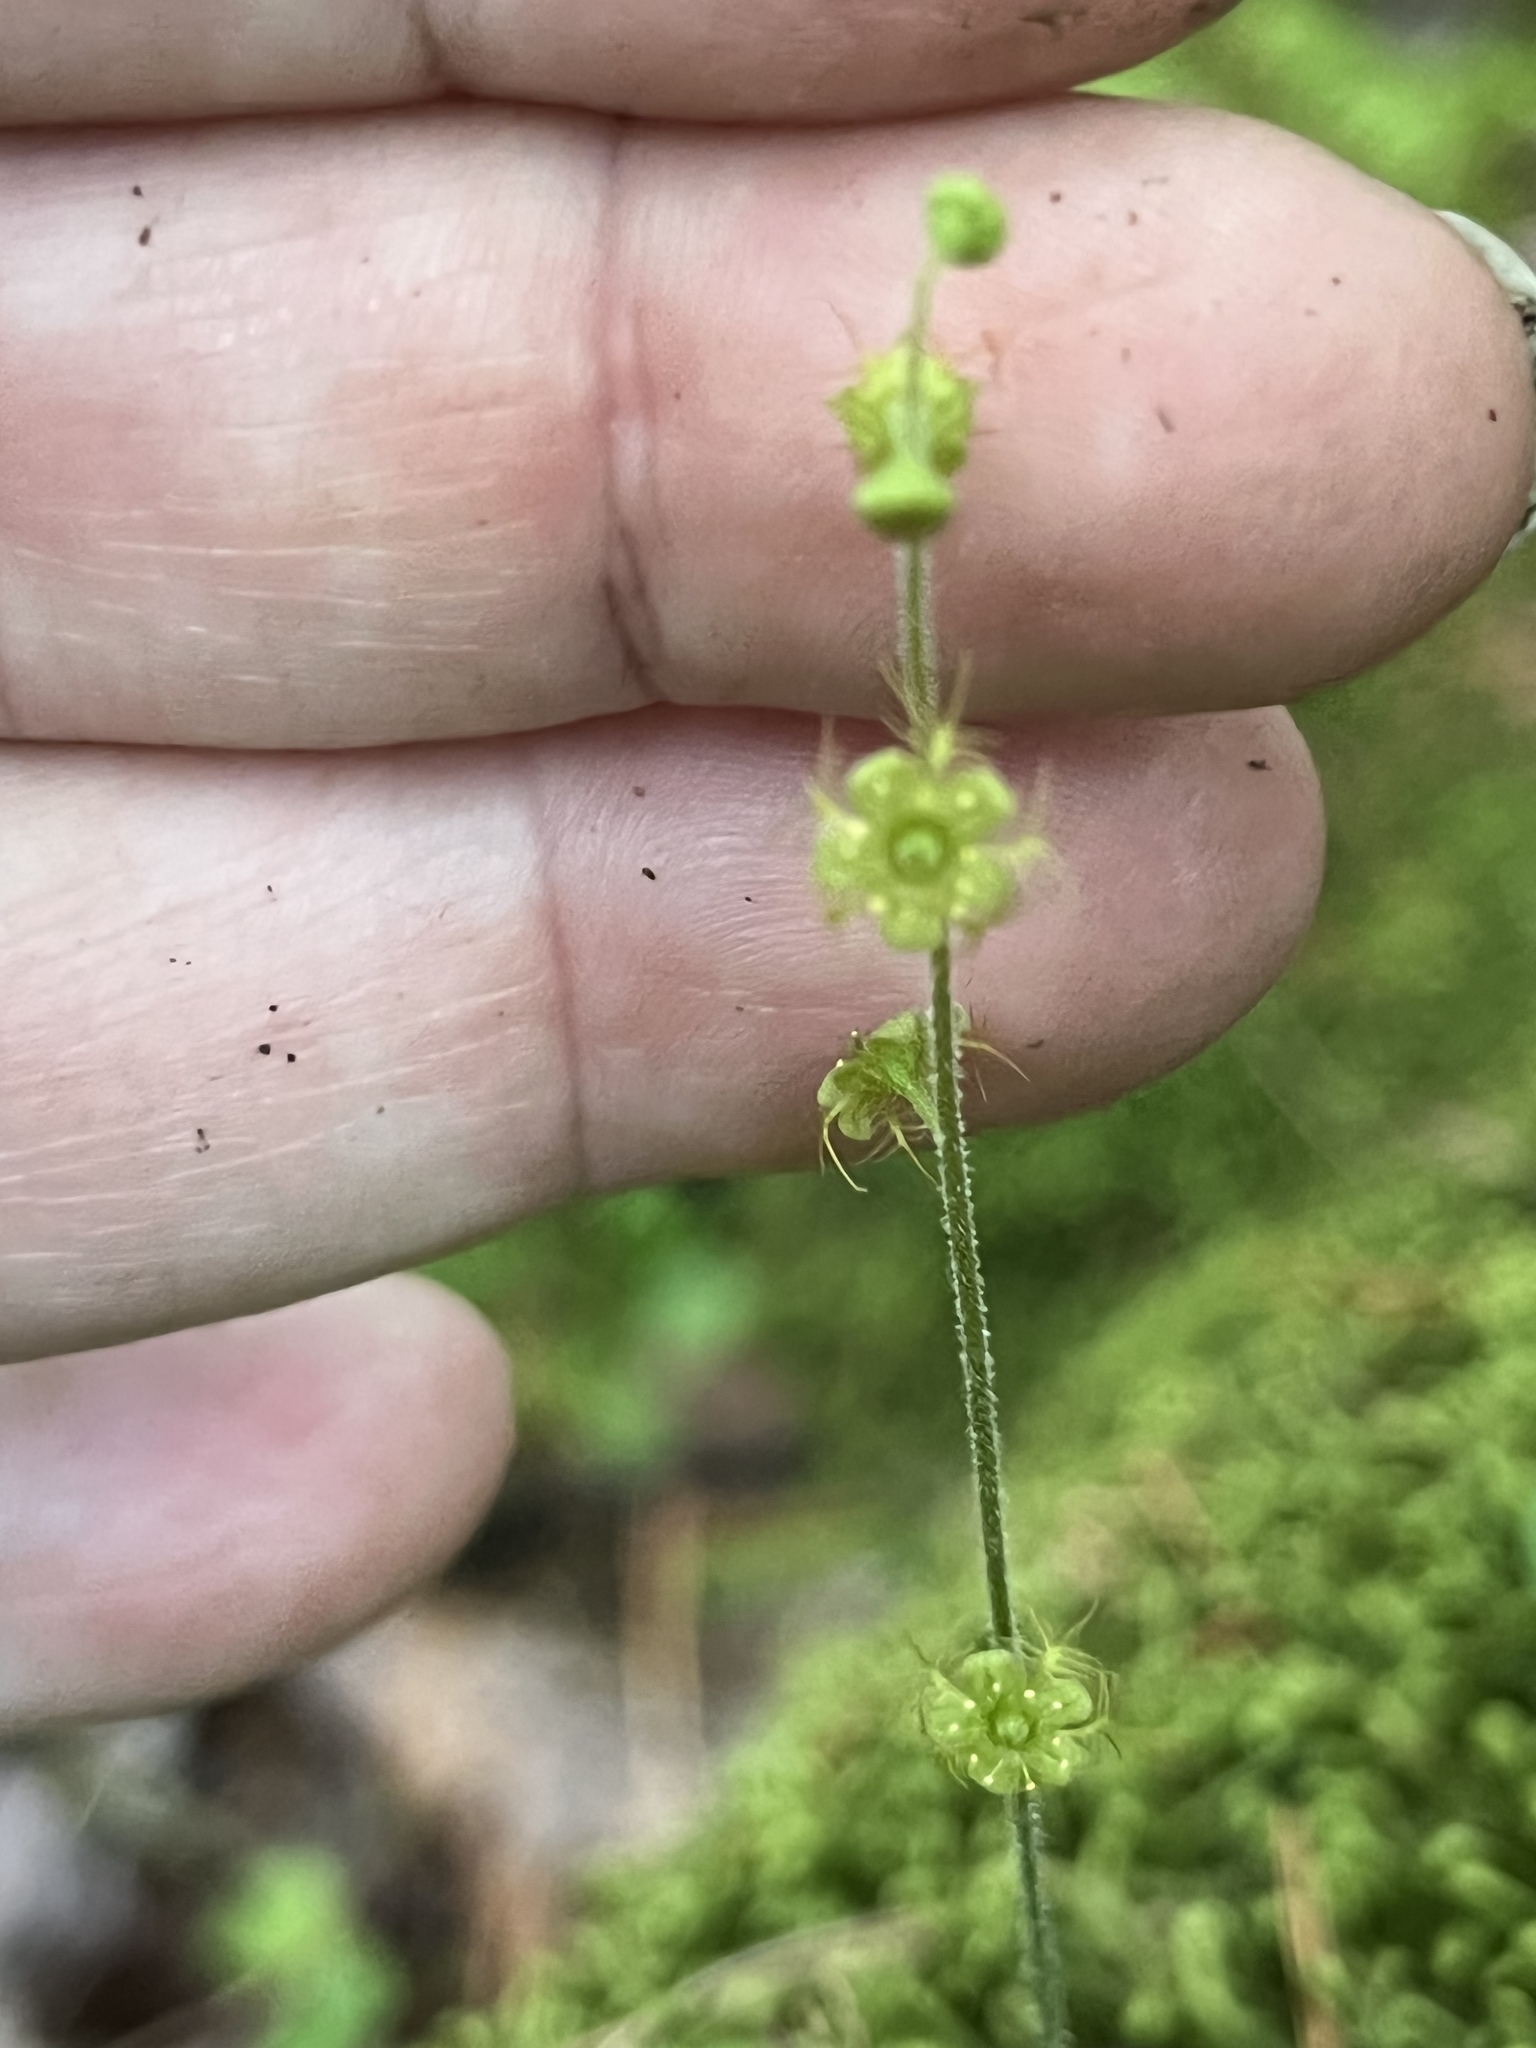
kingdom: Plantae
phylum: Tracheophyta
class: Magnoliopsida
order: Saxifragales
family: Saxifragaceae
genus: Mitella
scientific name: Mitella nuda
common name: Bare-stemmed bishop's-cap
